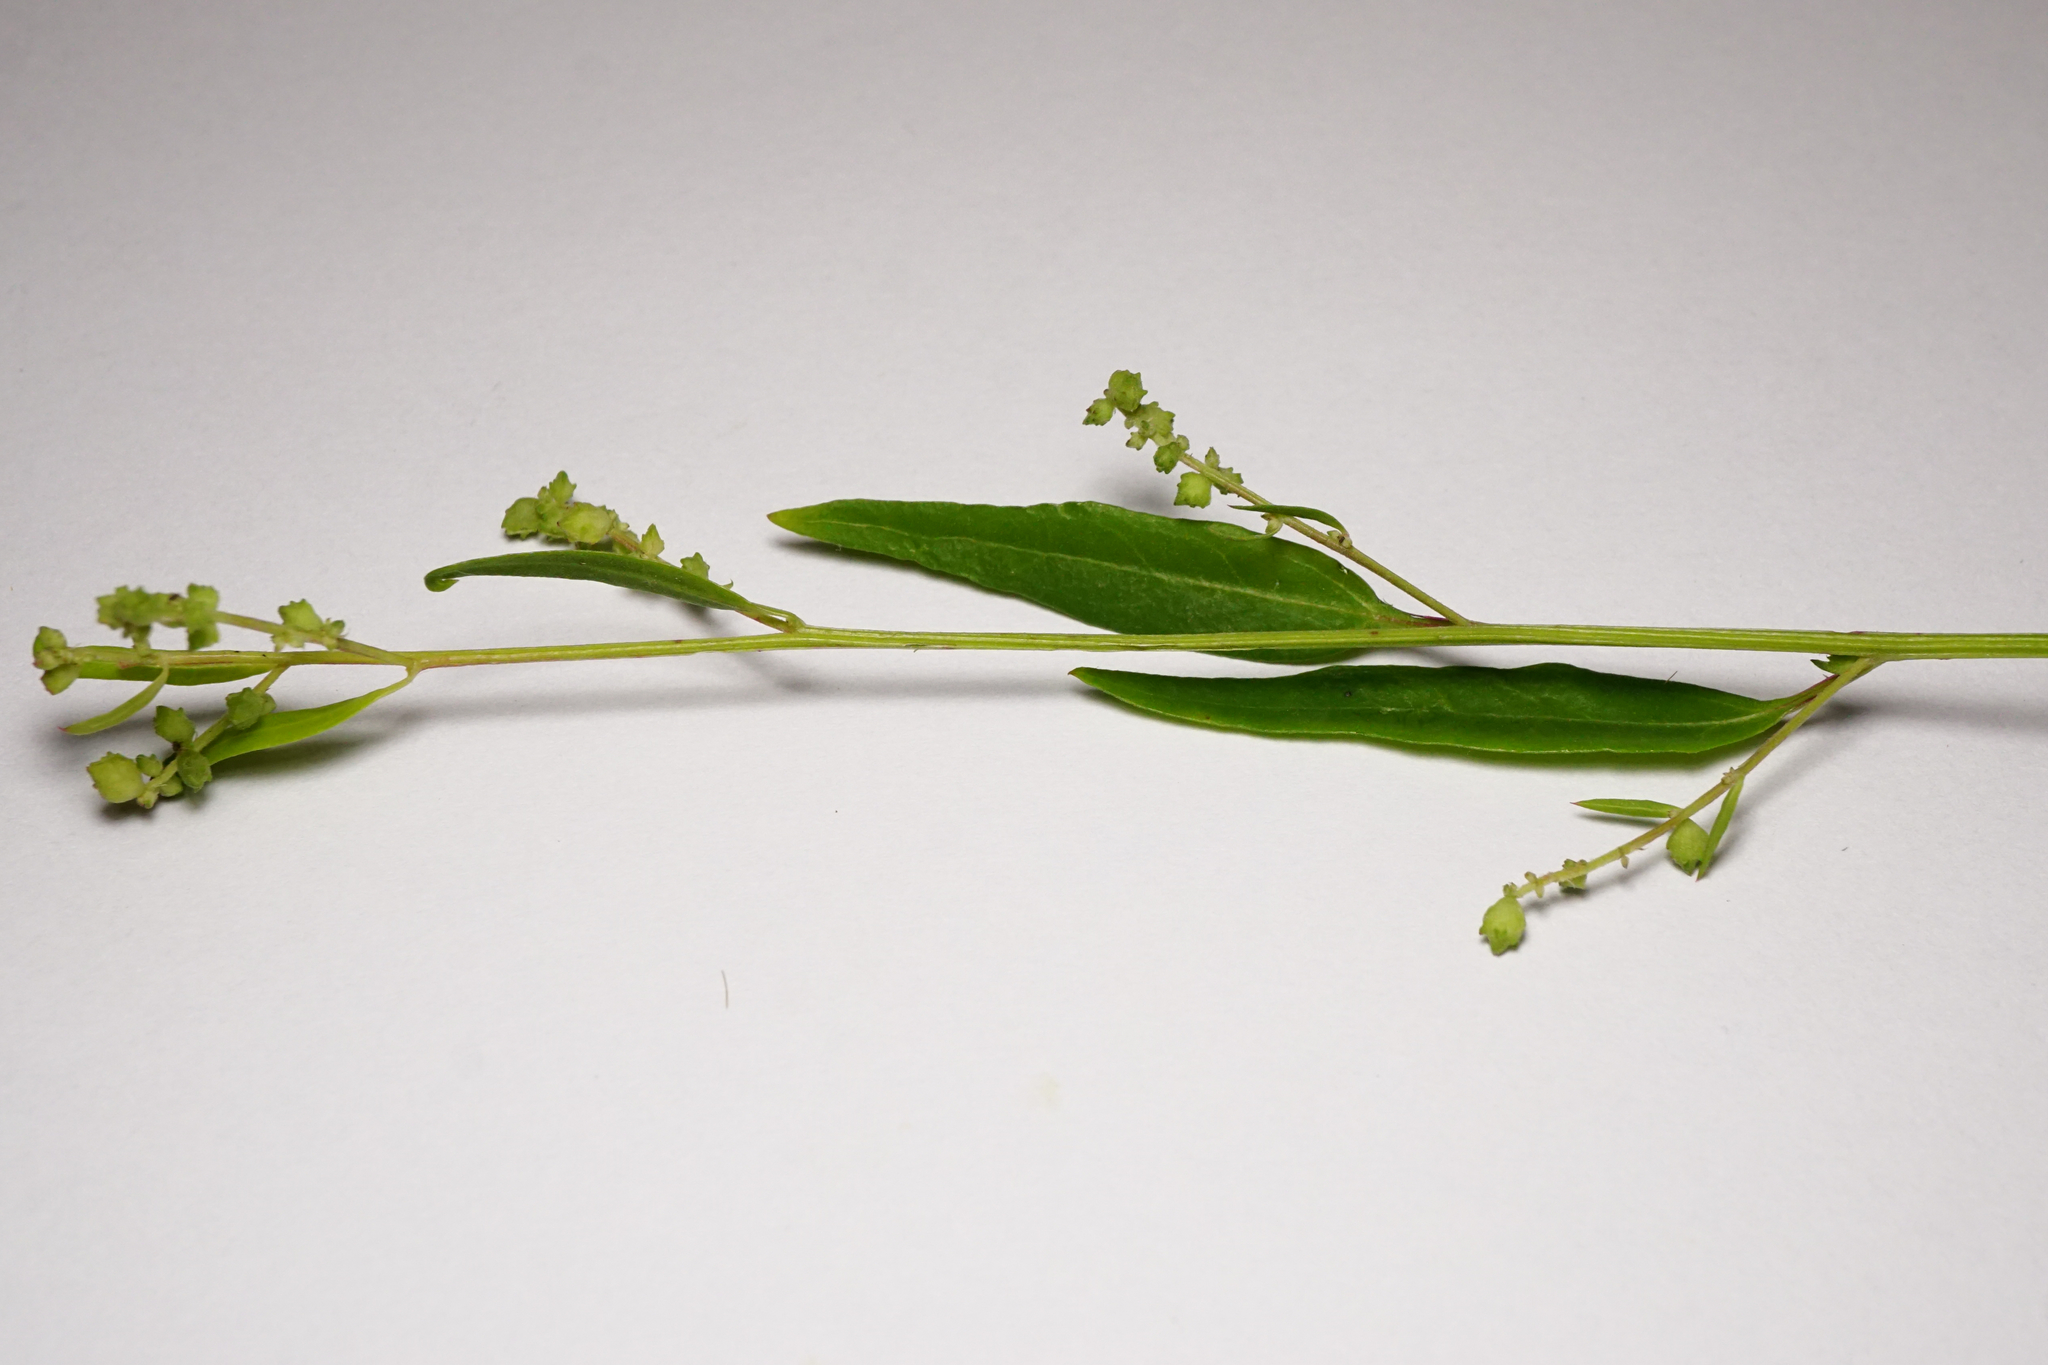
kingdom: Plantae
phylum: Tracheophyta
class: Magnoliopsida
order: Caryophyllales
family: Amaranthaceae
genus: Atriplex
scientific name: Atriplex patula
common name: Common orache
